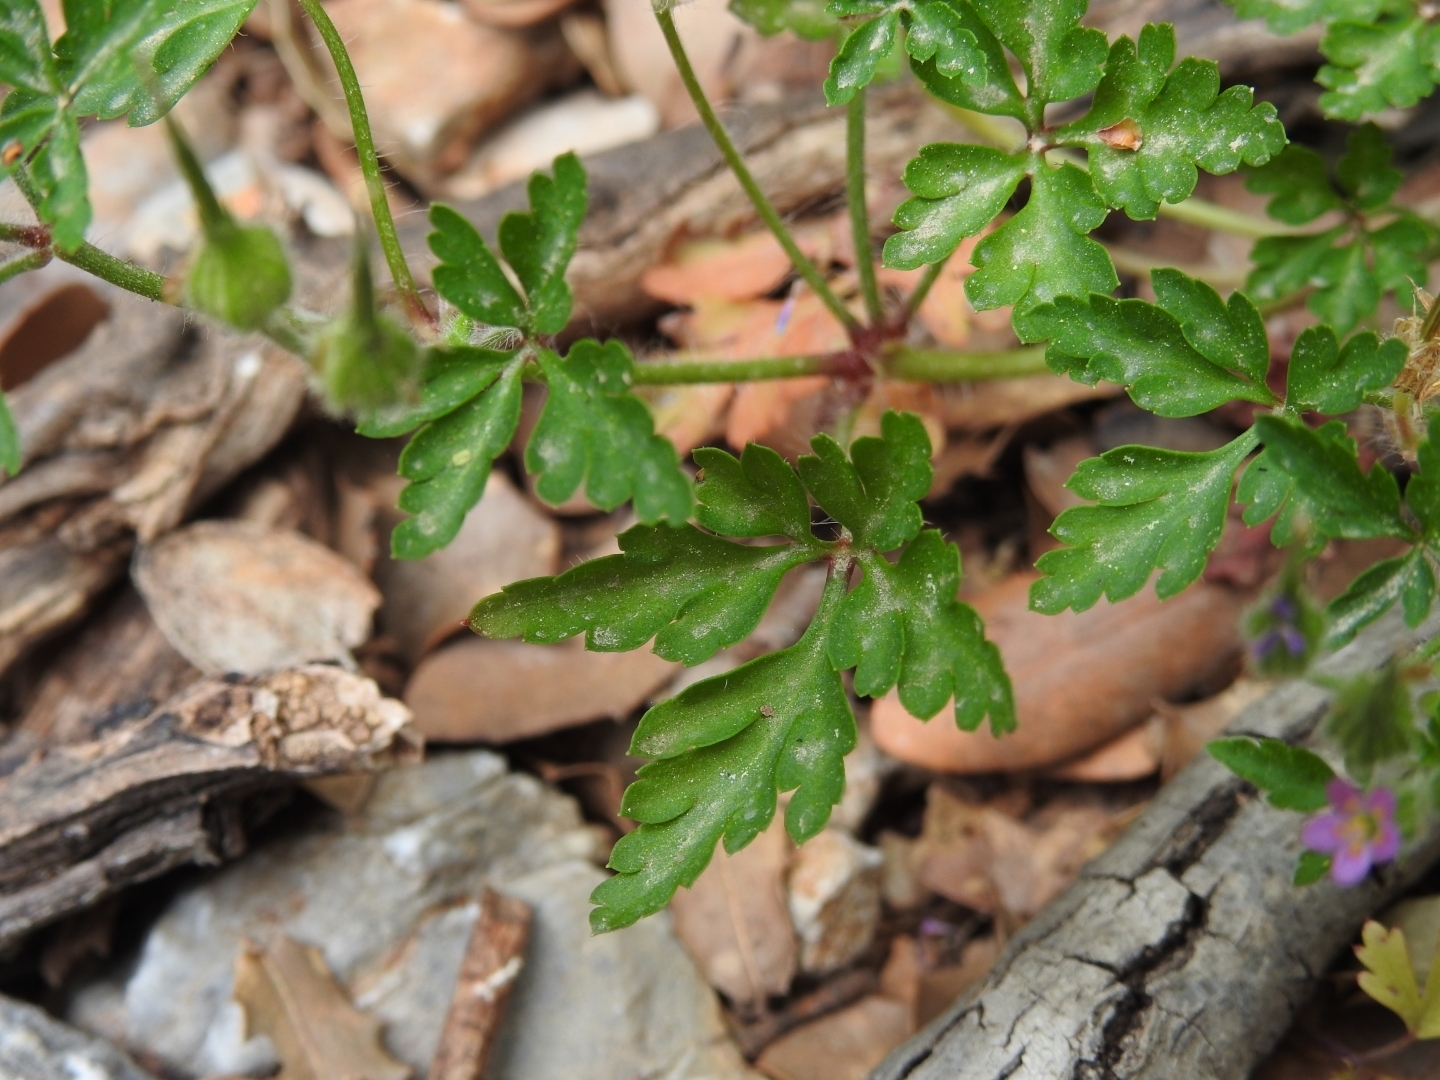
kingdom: Plantae
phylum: Tracheophyta
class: Magnoliopsida
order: Geraniales
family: Geraniaceae
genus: Geranium
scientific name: Geranium purpureum
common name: Little-robin
